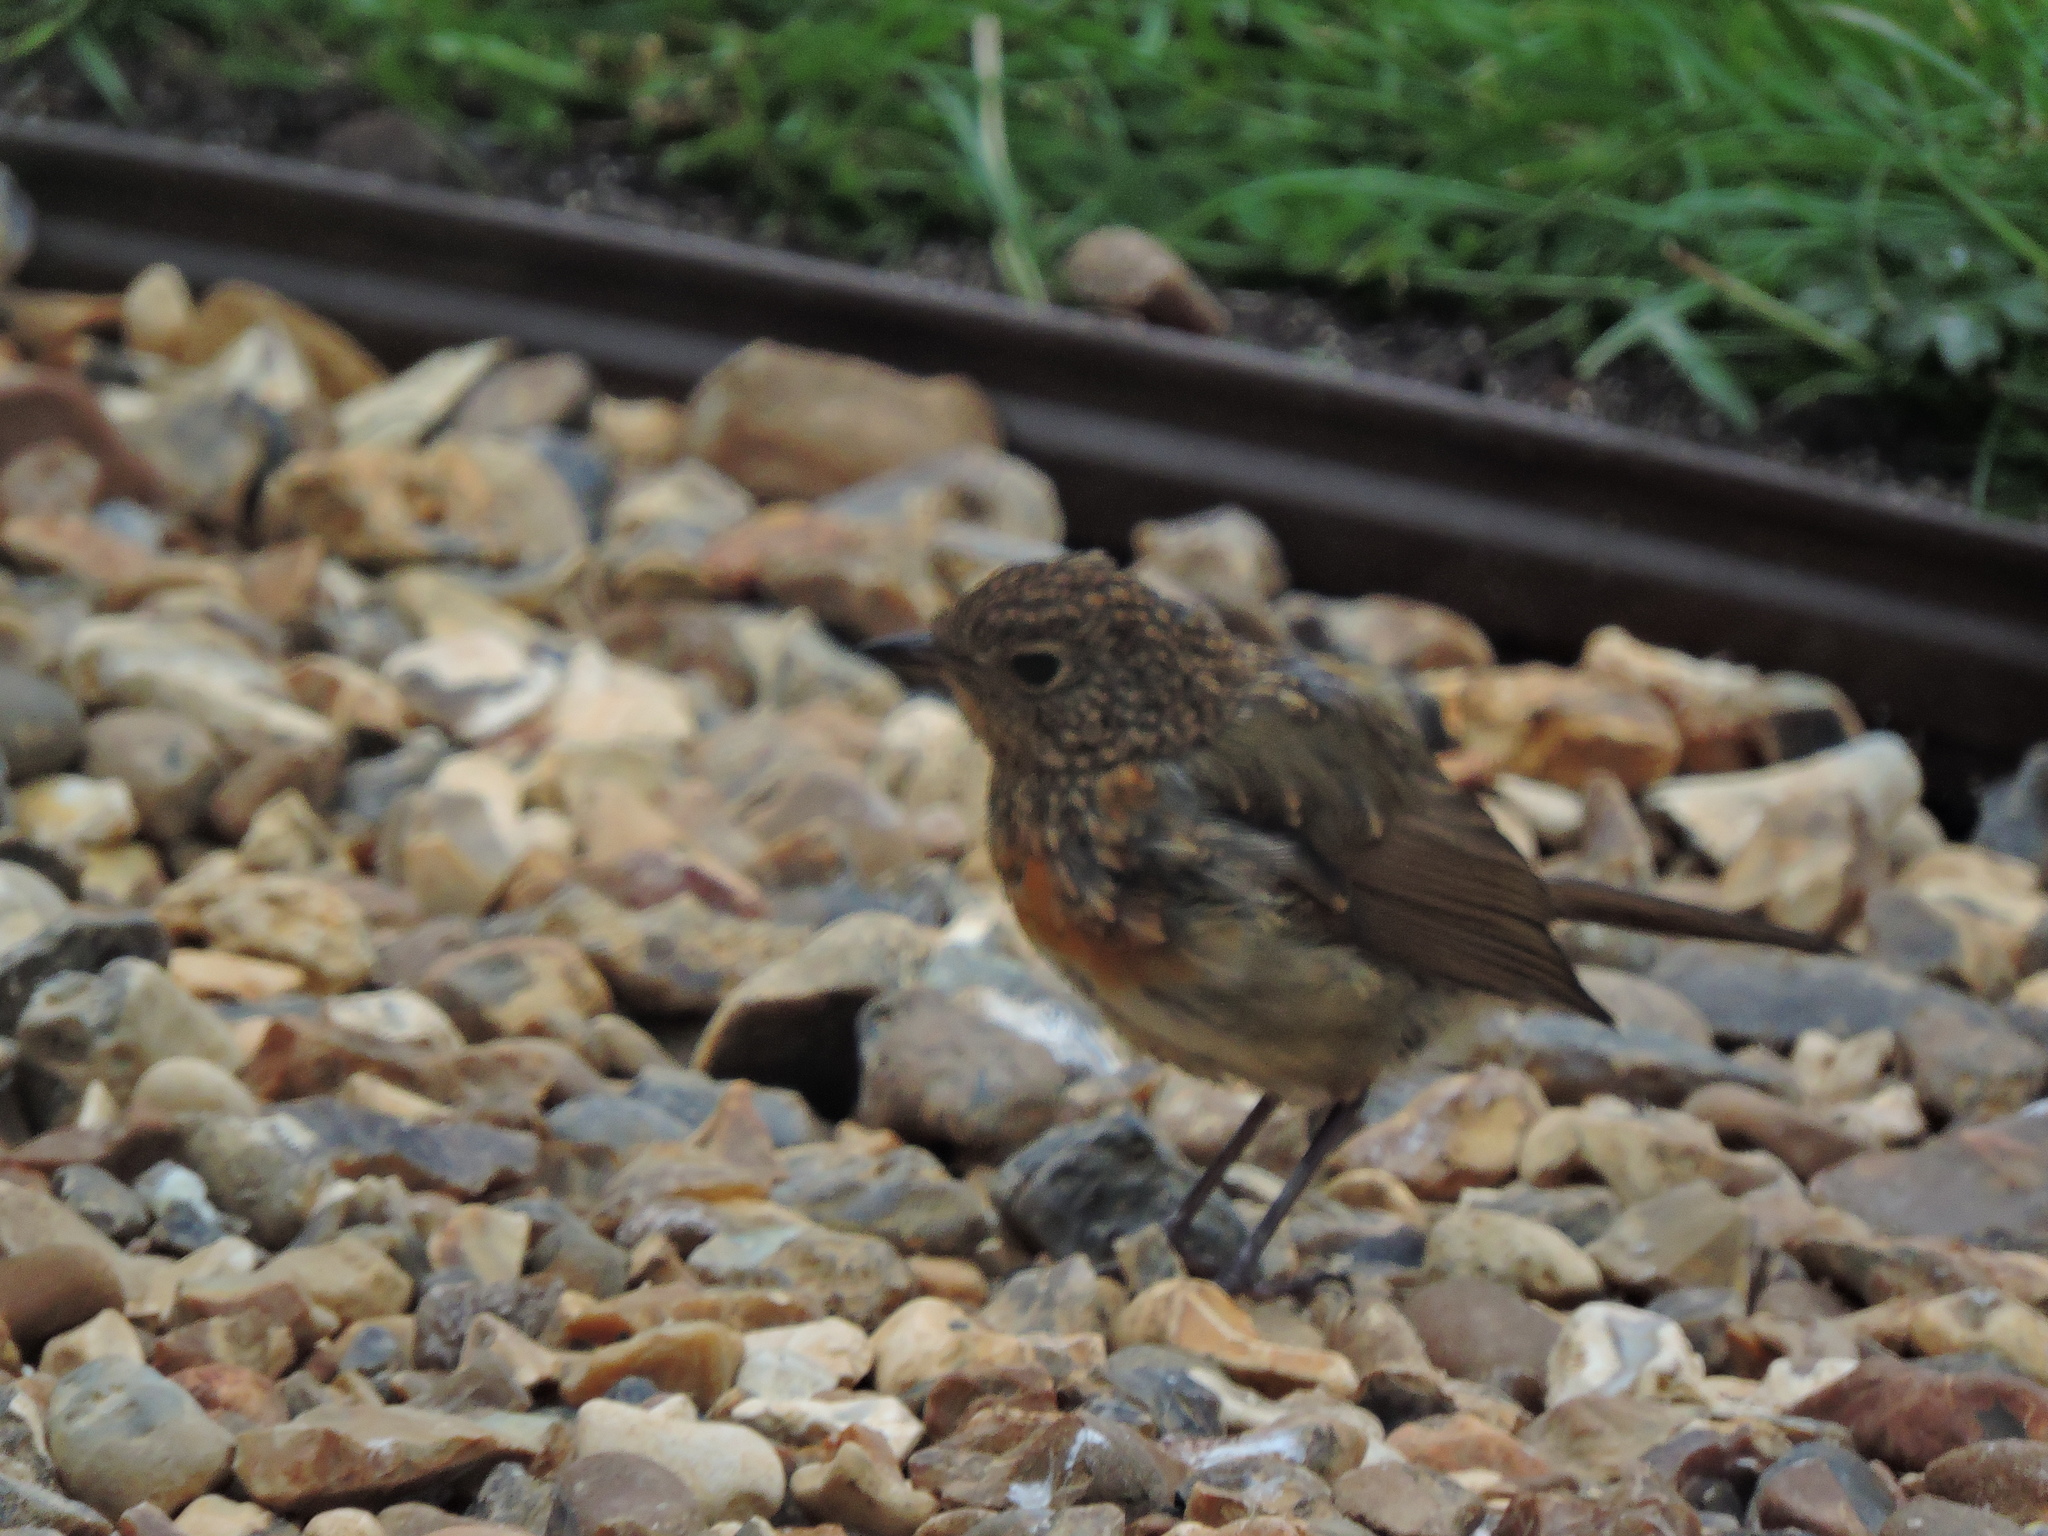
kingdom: Animalia
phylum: Chordata
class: Aves
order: Passeriformes
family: Muscicapidae
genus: Erithacus
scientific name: Erithacus rubecula
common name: European robin
